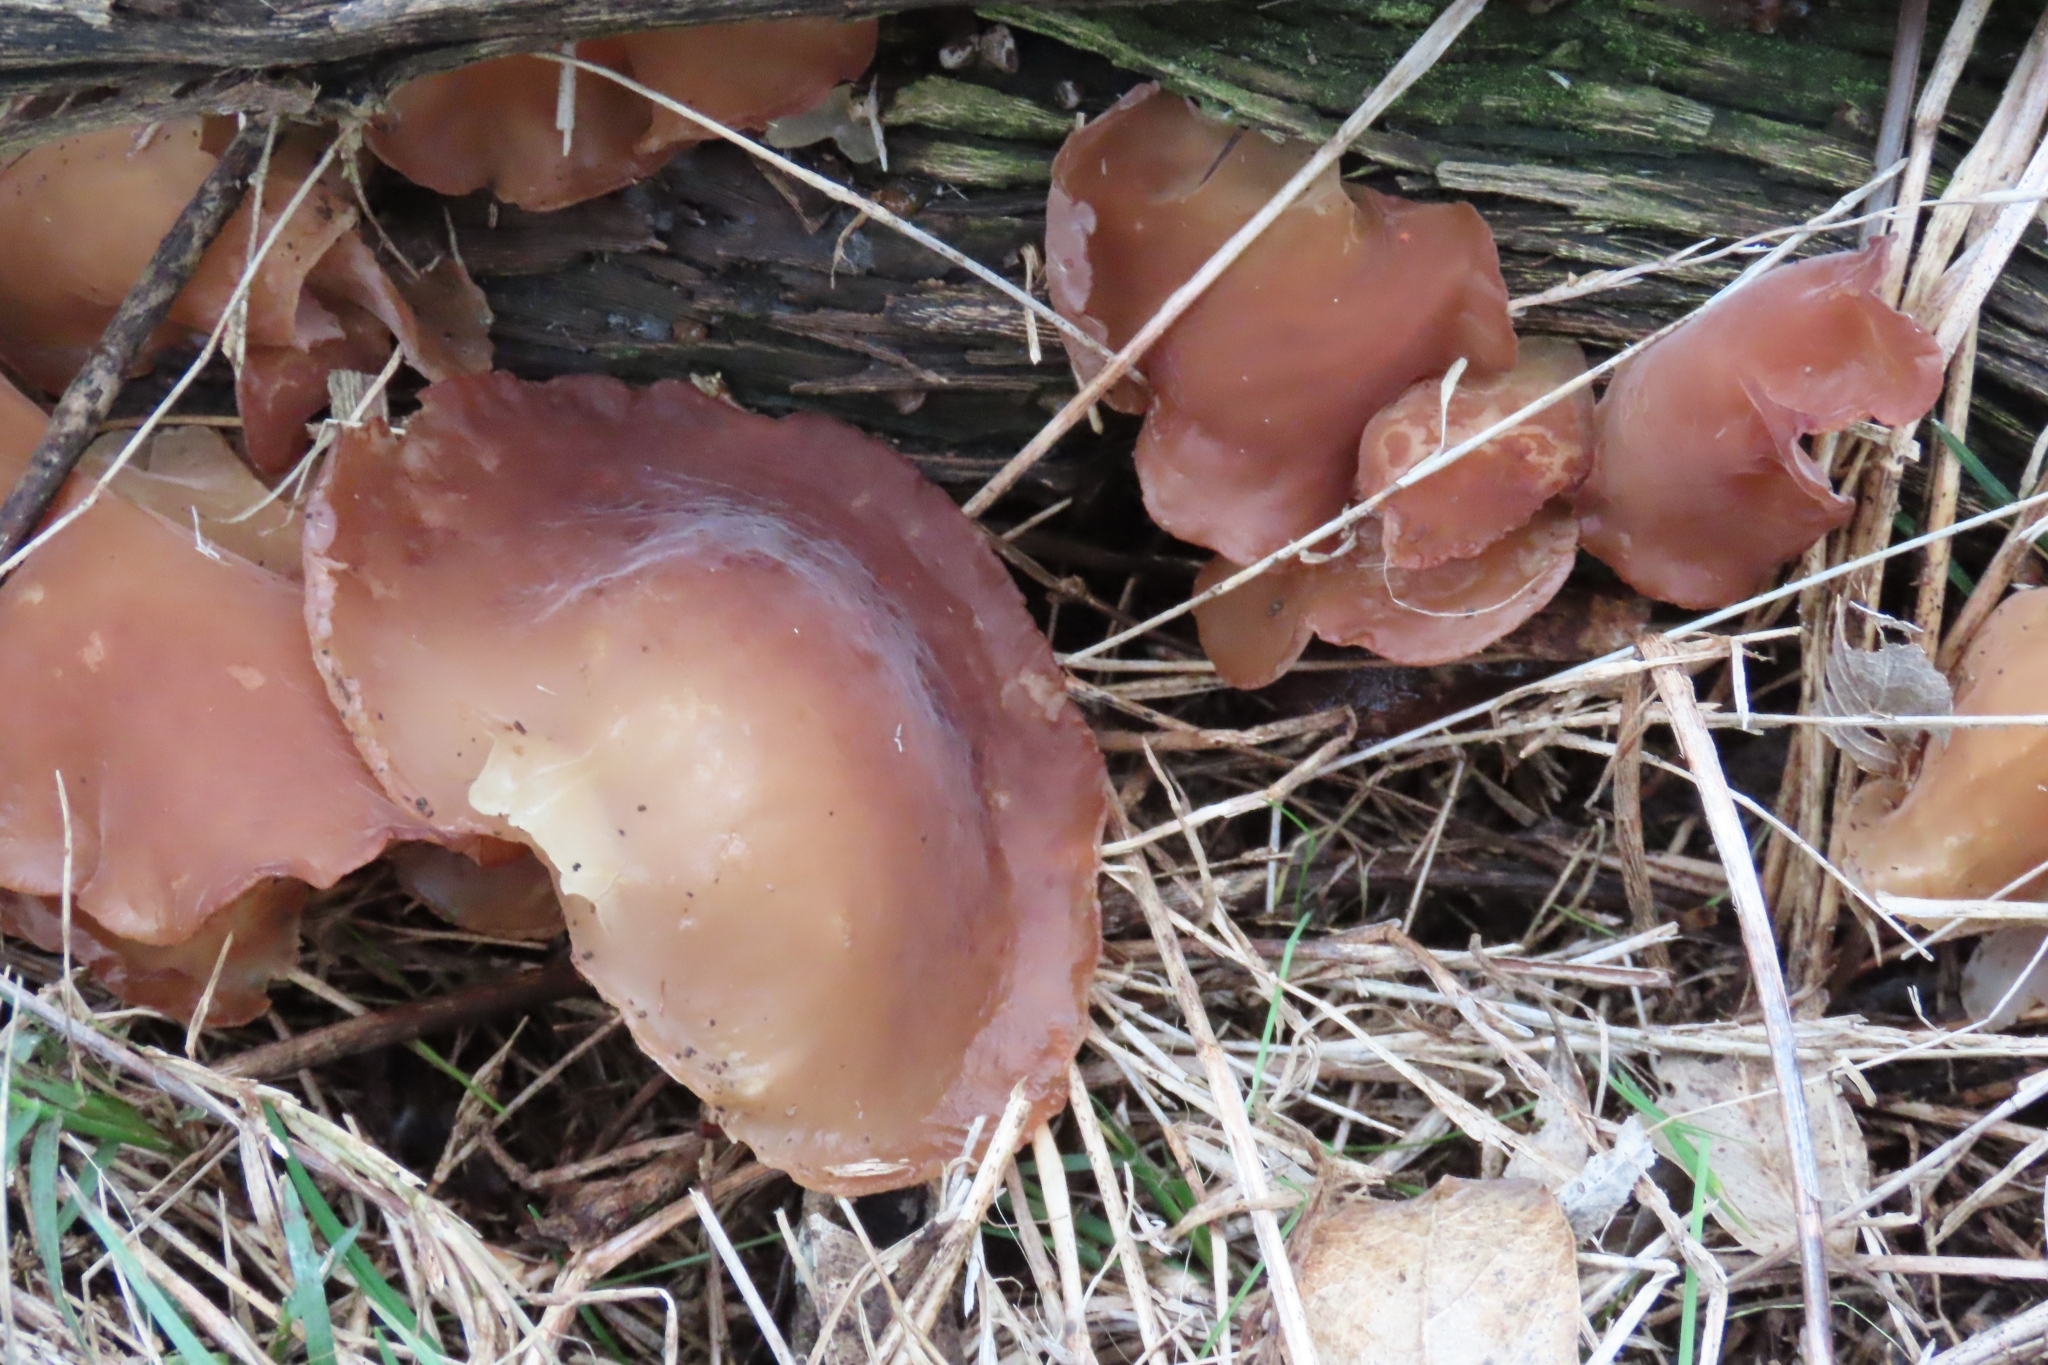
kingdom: Fungi
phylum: Basidiomycota
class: Agaricomycetes
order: Auriculariales
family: Auriculariaceae
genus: Auricularia
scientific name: Auricularia fuscosuccinea
